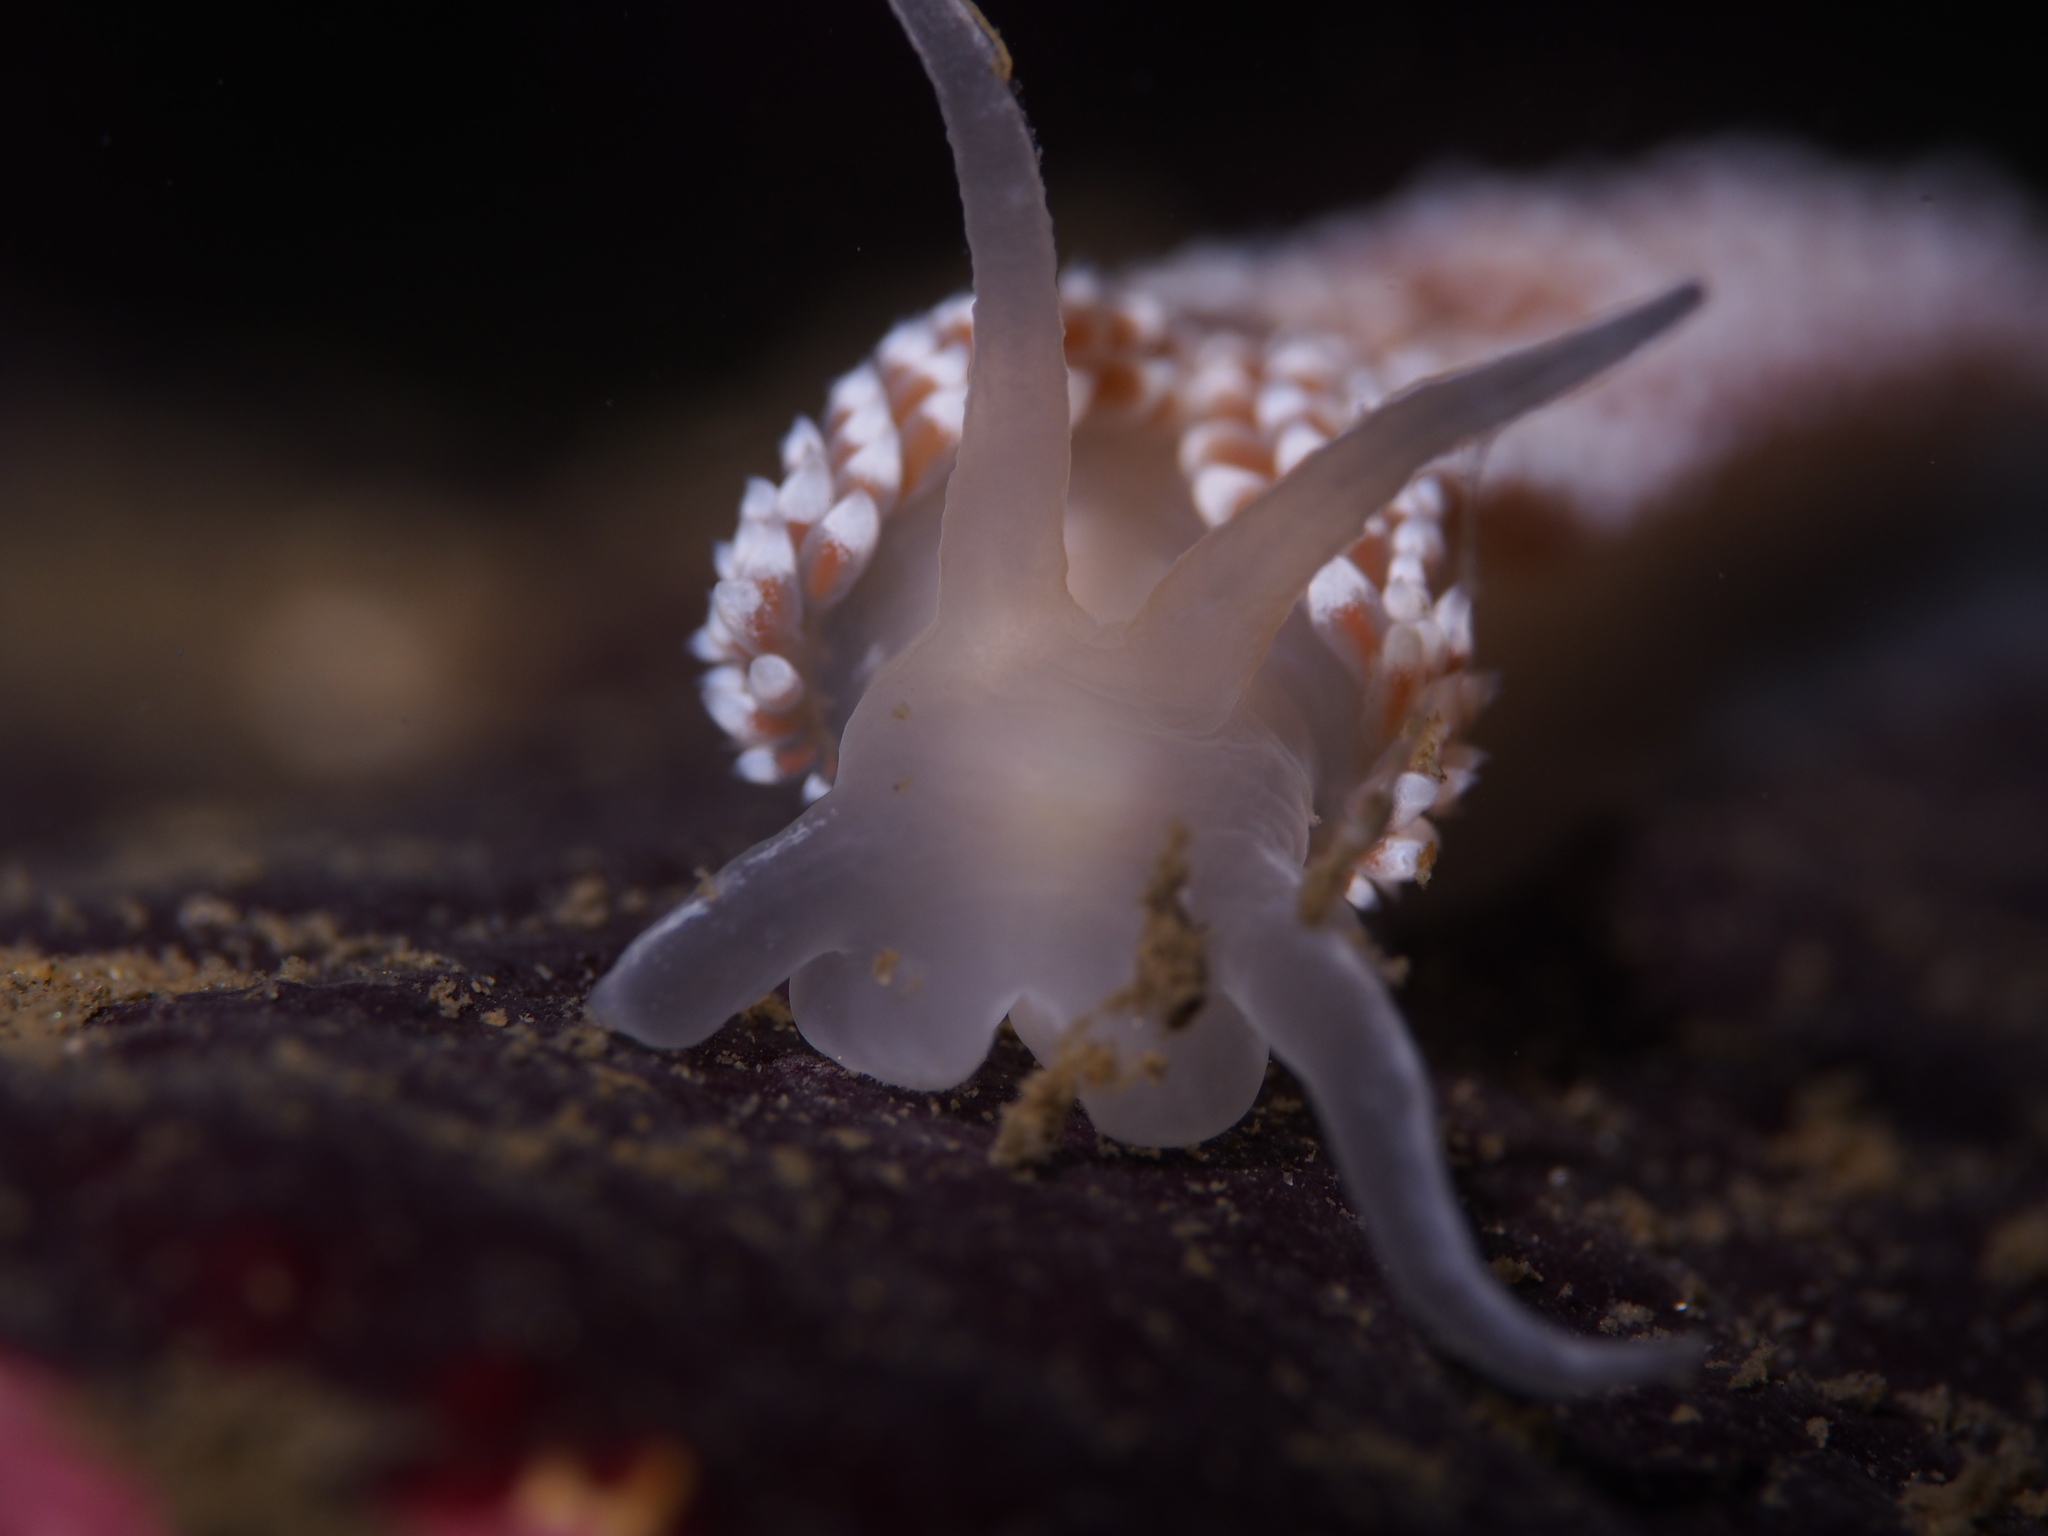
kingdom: Animalia
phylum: Mollusca
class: Gastropoda
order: Nudibranchia
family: Coryphellidae
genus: Coryphella
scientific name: Coryphella verrucosa
